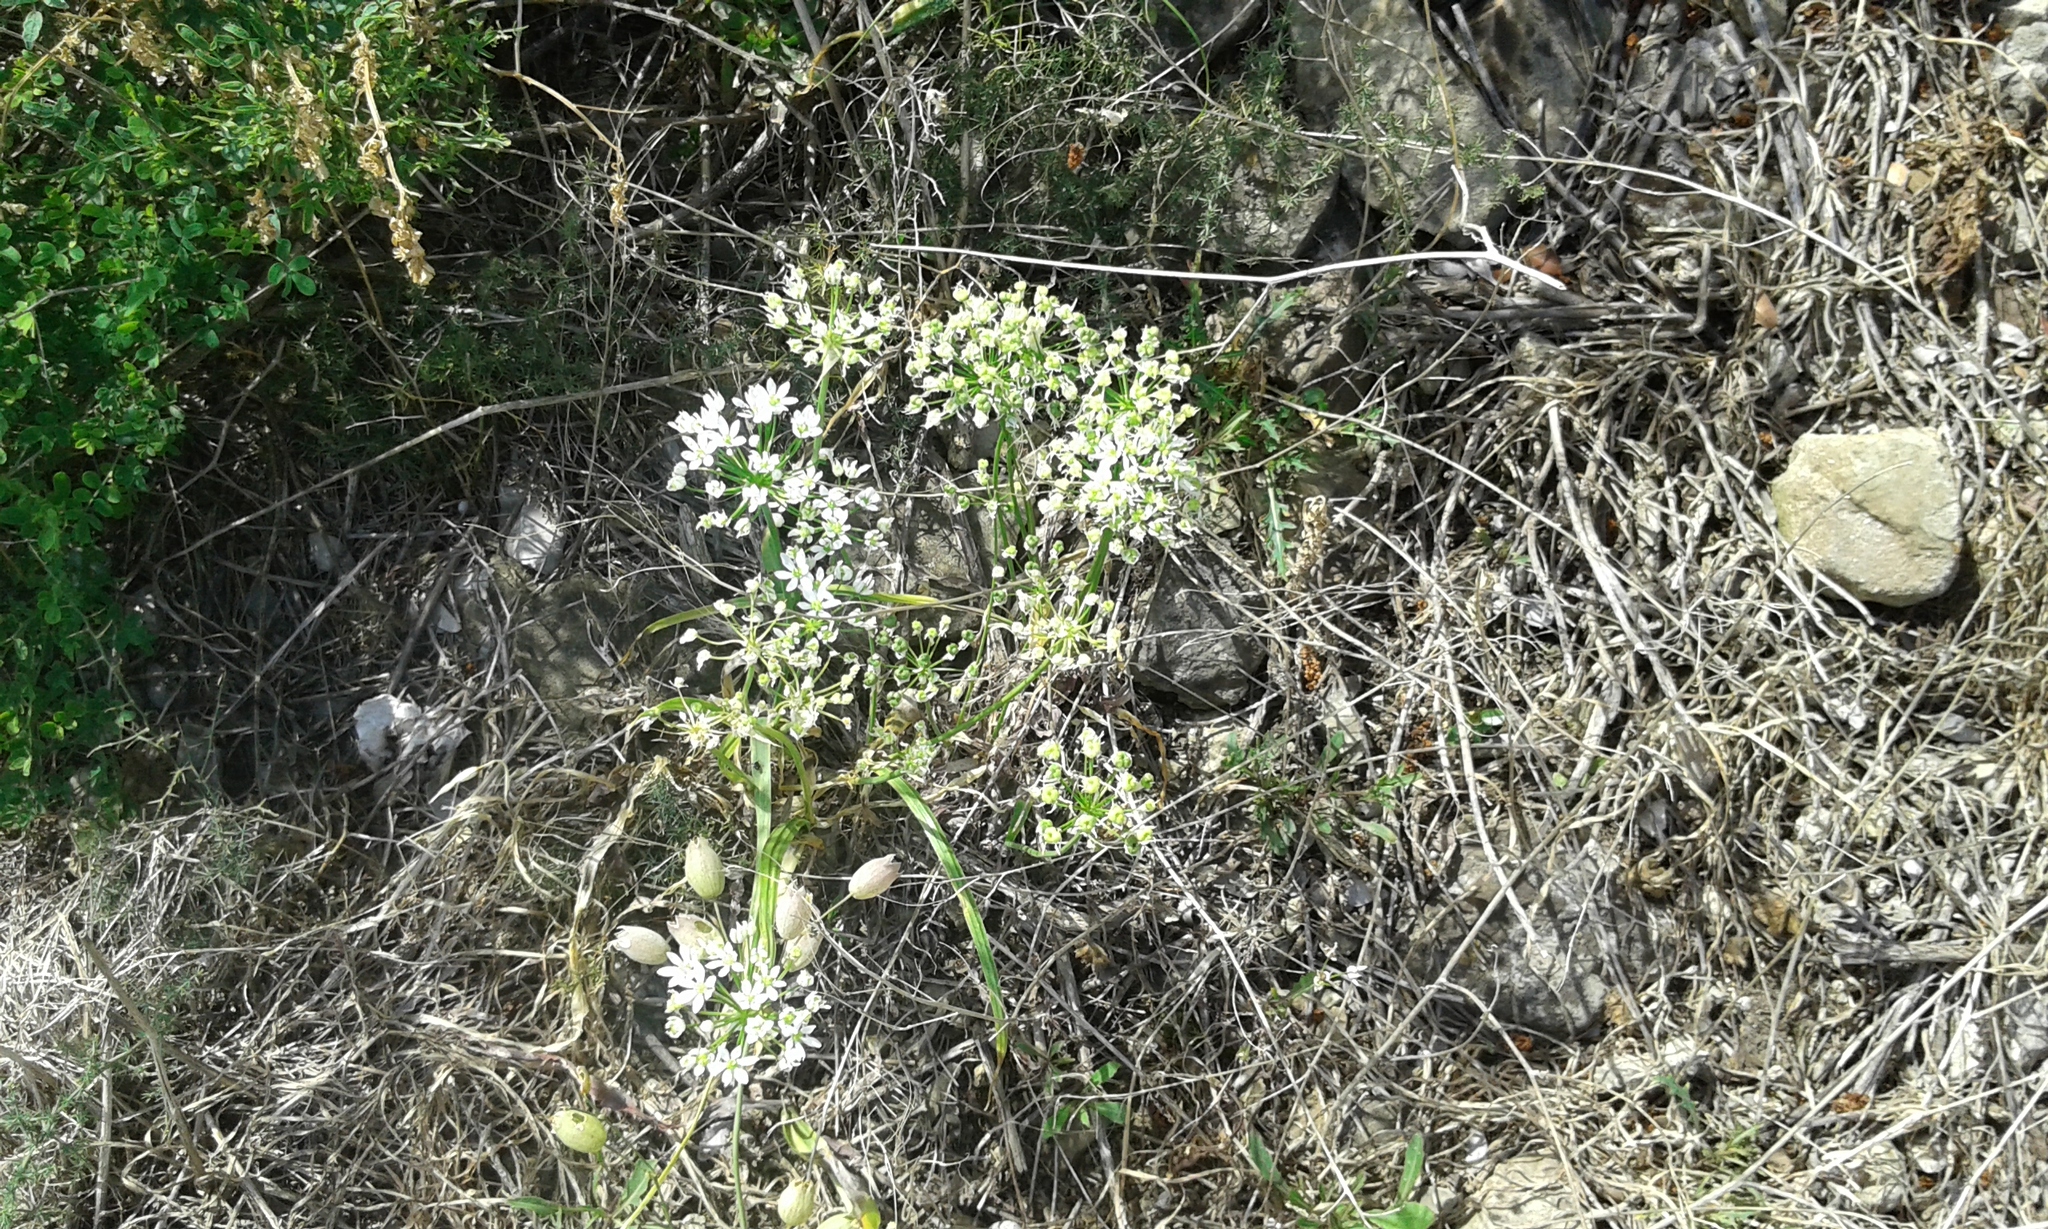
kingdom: Plantae
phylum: Tracheophyta
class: Liliopsida
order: Asparagales
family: Amaryllidaceae
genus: Allium
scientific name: Allium subhirsutum
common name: Hairy garlic
